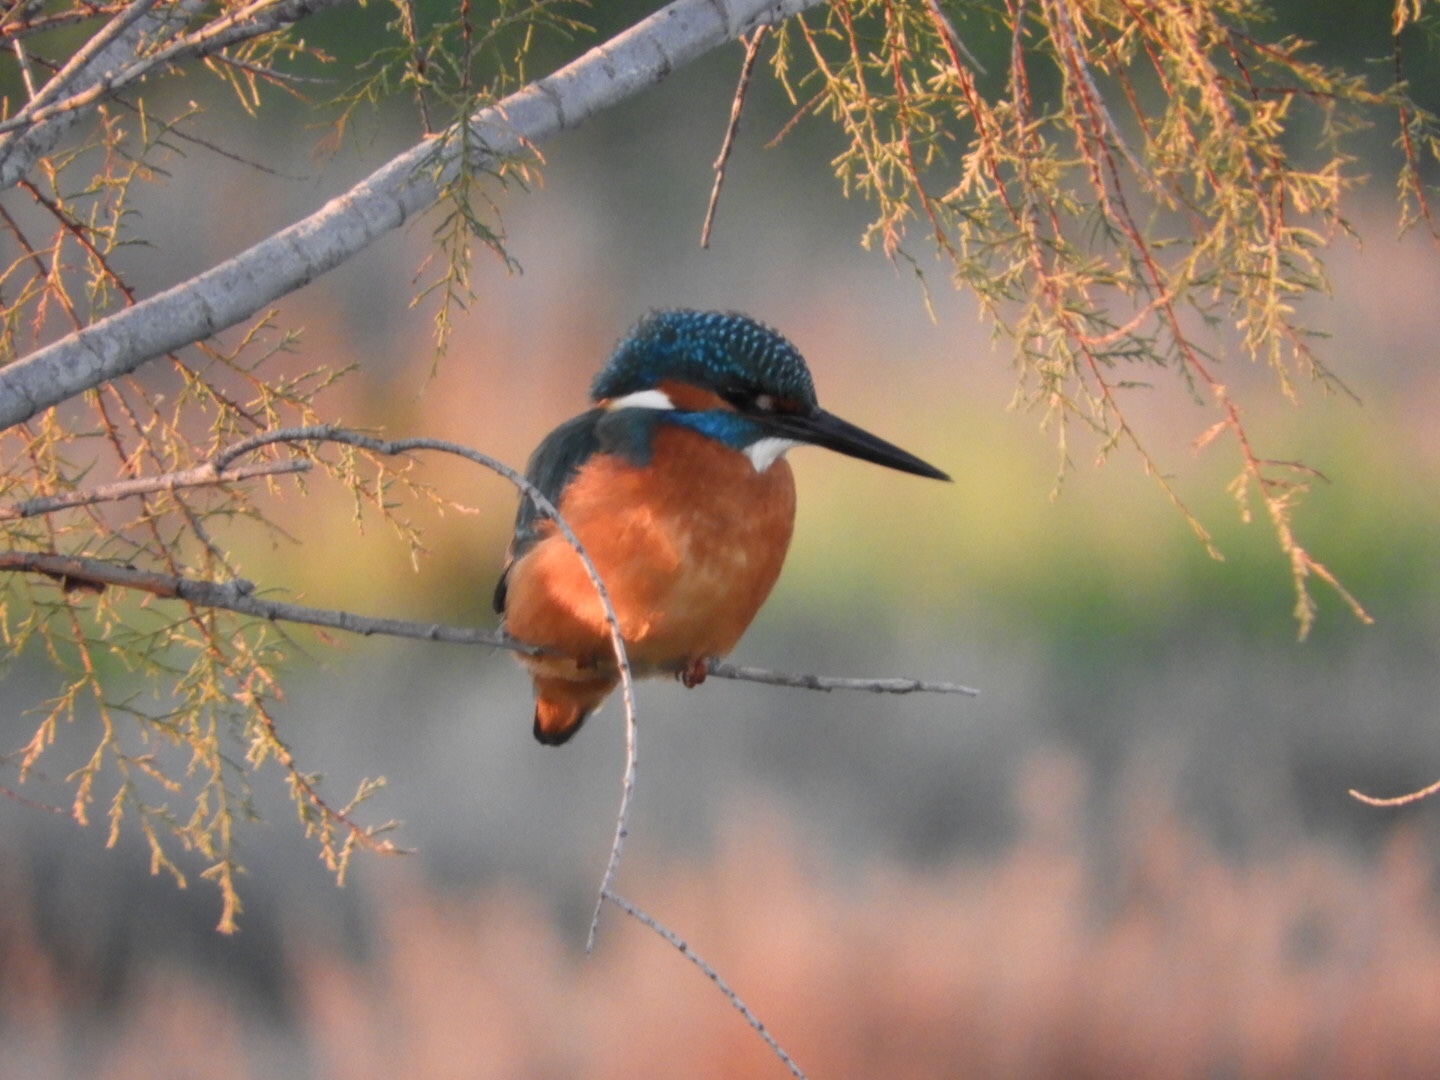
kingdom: Animalia
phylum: Chordata
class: Aves
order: Coraciiformes
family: Alcedinidae
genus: Alcedo
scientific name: Alcedo atthis
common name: Common kingfisher
